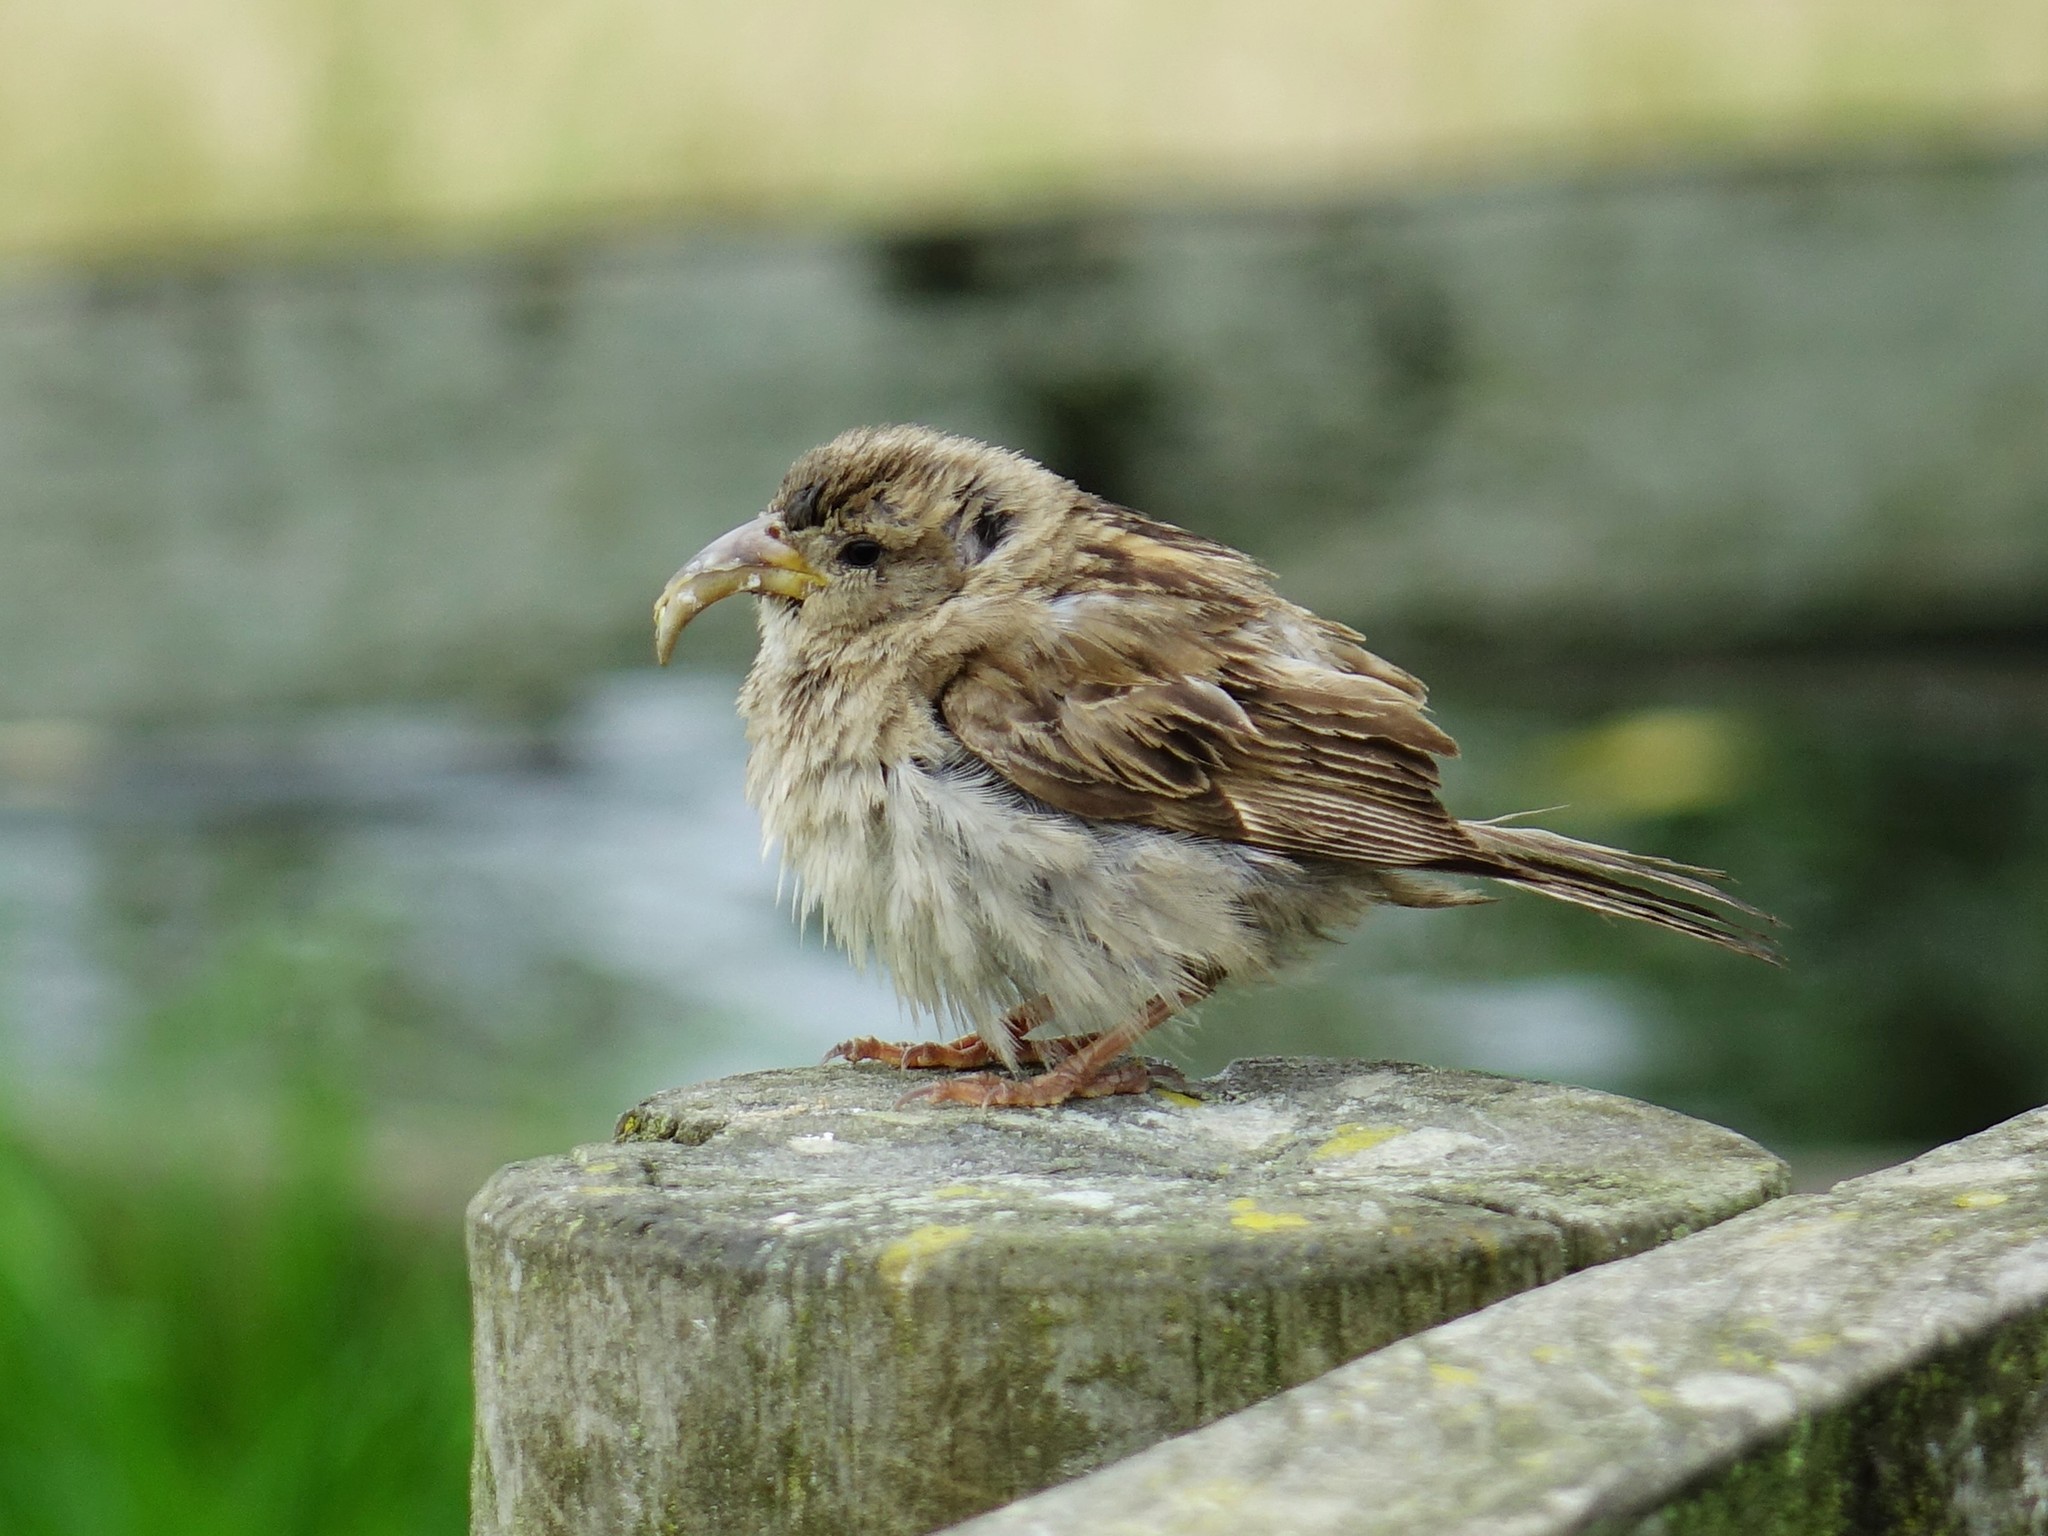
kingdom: Animalia
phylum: Chordata
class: Aves
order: Passeriformes
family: Passeridae
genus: Passer
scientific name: Passer domesticus
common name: House sparrow
